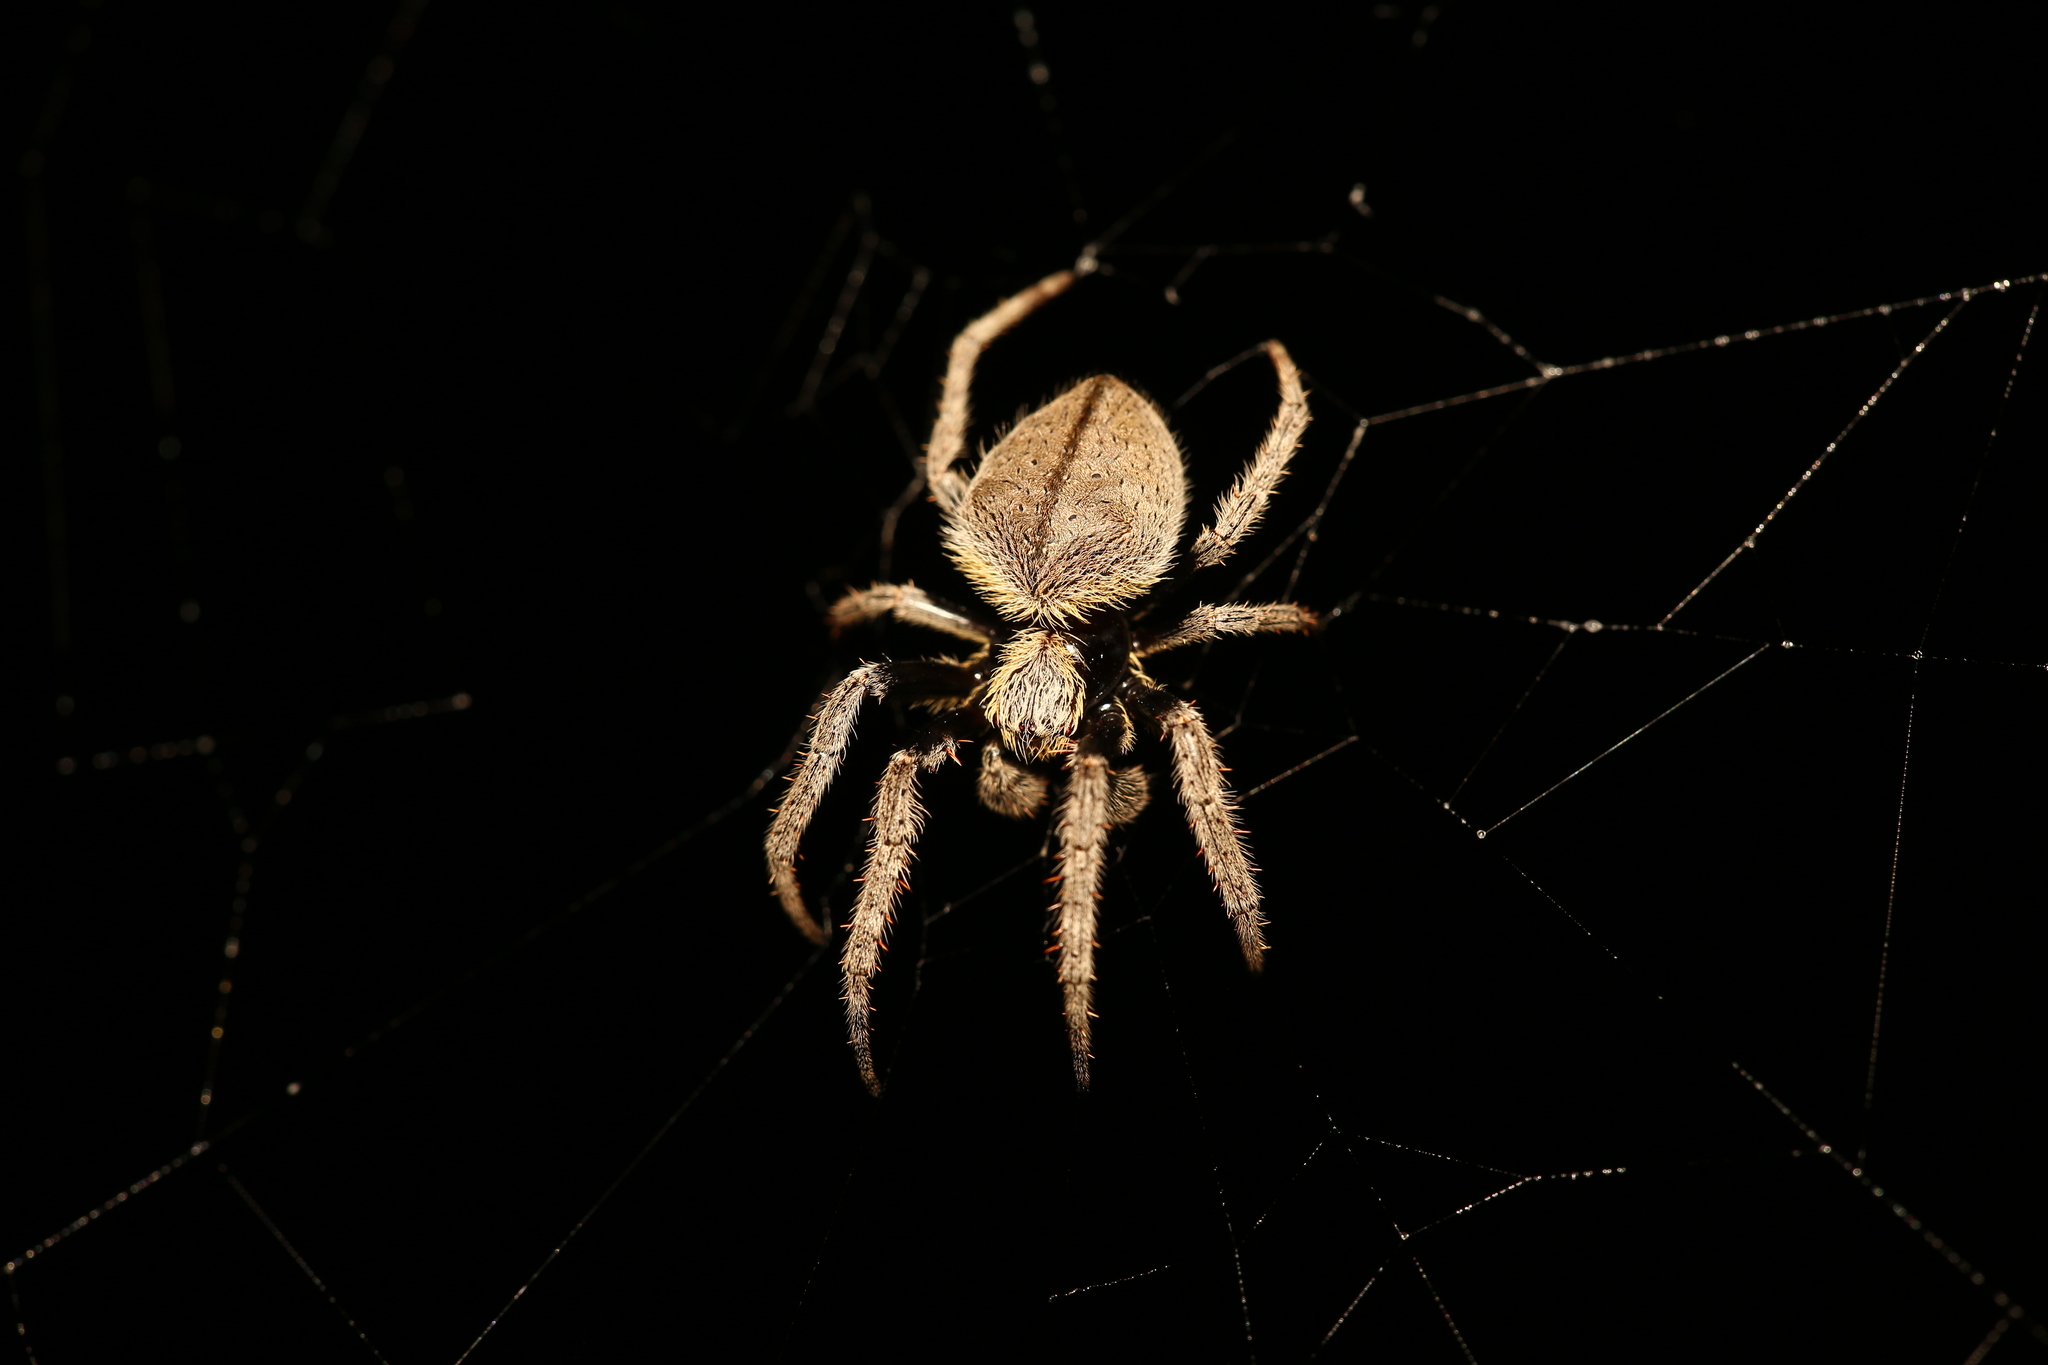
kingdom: Animalia
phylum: Arthropoda
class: Arachnida
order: Araneae
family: Araneidae
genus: Hortophora
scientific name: Hortophora transmarina
